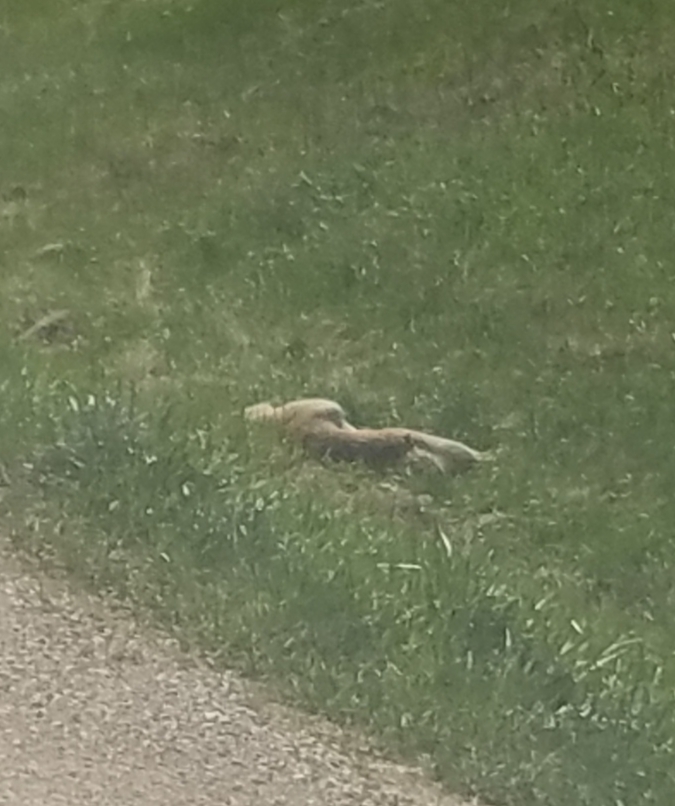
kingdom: Animalia
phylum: Chordata
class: Mammalia
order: Artiodactyla
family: Cervidae
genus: Odocoileus
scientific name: Odocoileus virginianus
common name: White-tailed deer
